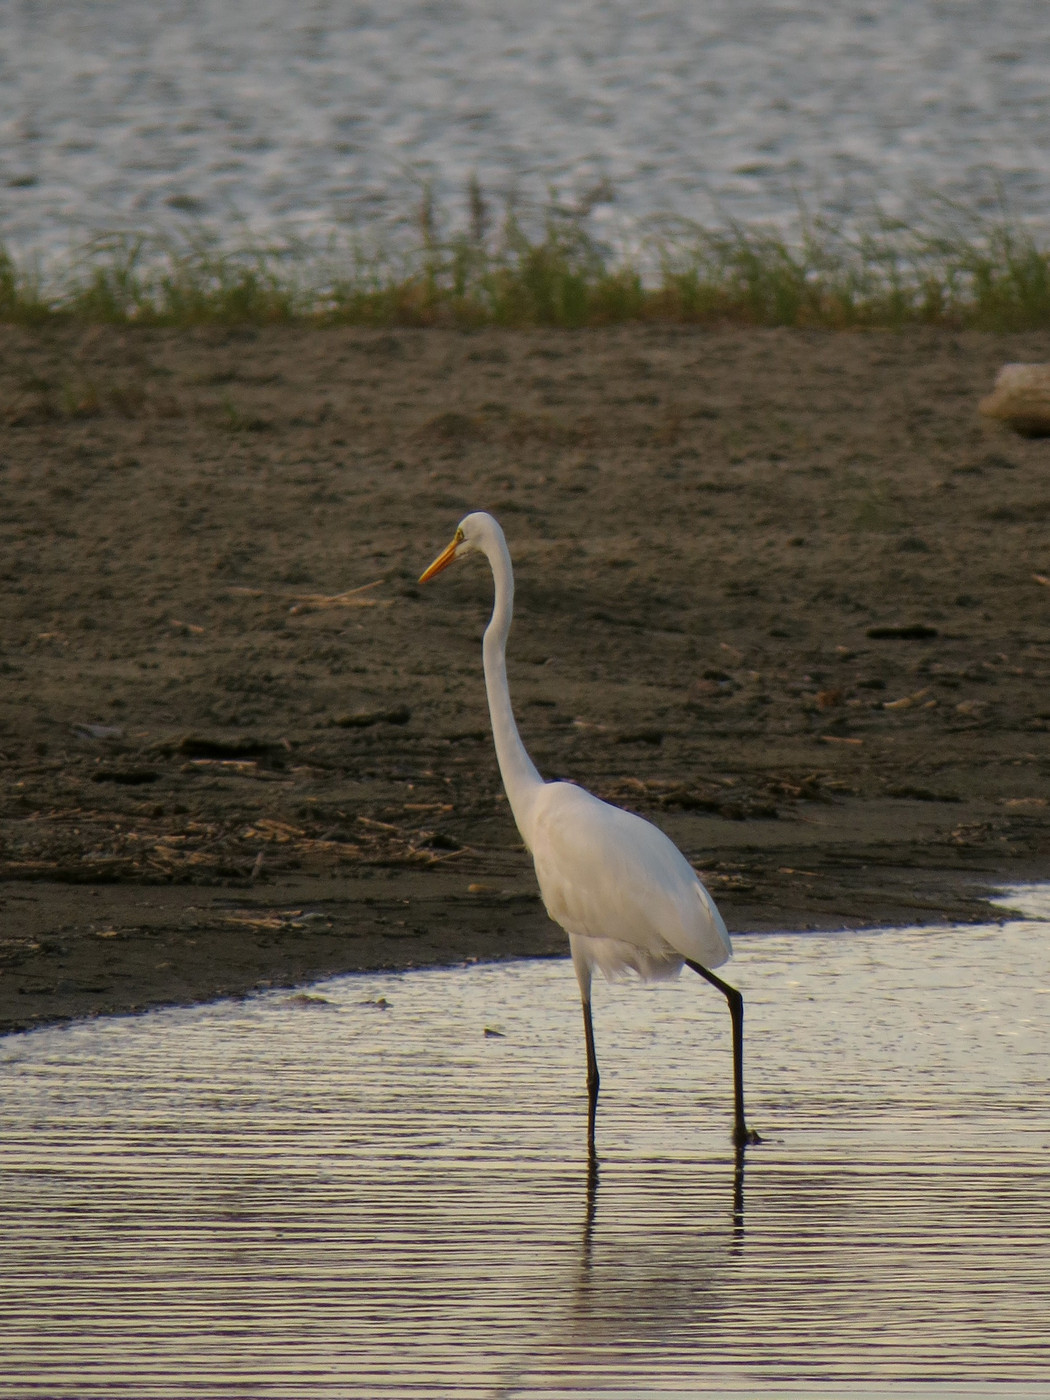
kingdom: Animalia
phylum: Chordata
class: Aves
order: Pelecaniformes
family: Ardeidae
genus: Ardea
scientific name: Ardea alba
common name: Great egret
